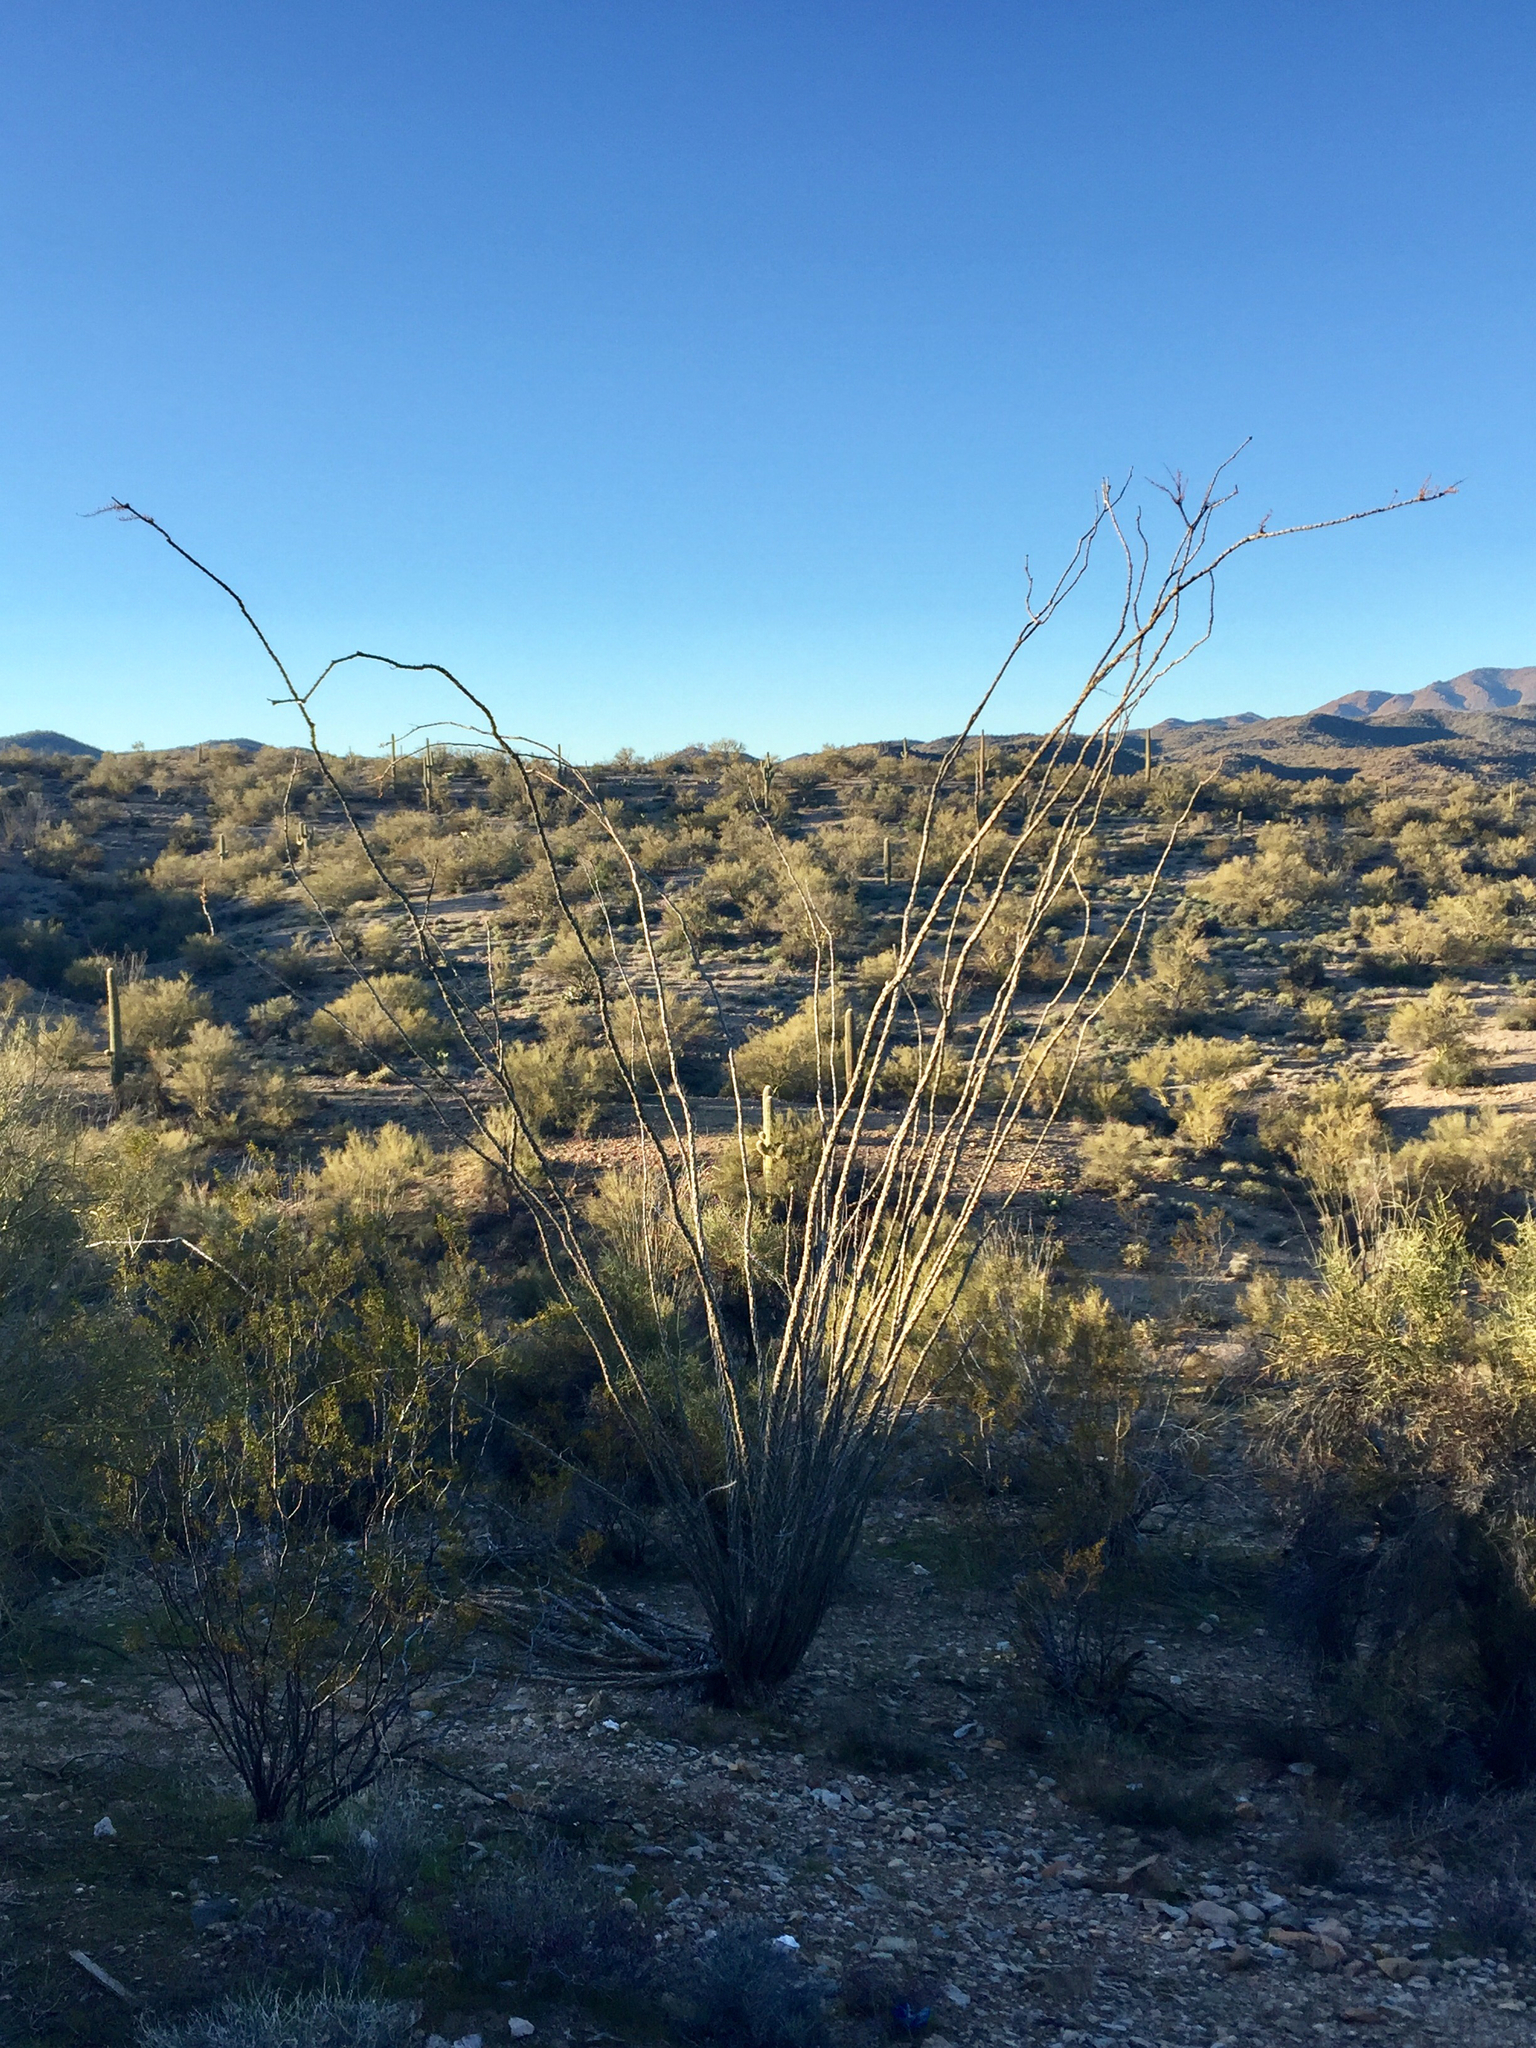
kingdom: Plantae
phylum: Tracheophyta
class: Magnoliopsida
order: Ericales
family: Fouquieriaceae
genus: Fouquieria
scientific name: Fouquieria splendens
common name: Vine-cactus
